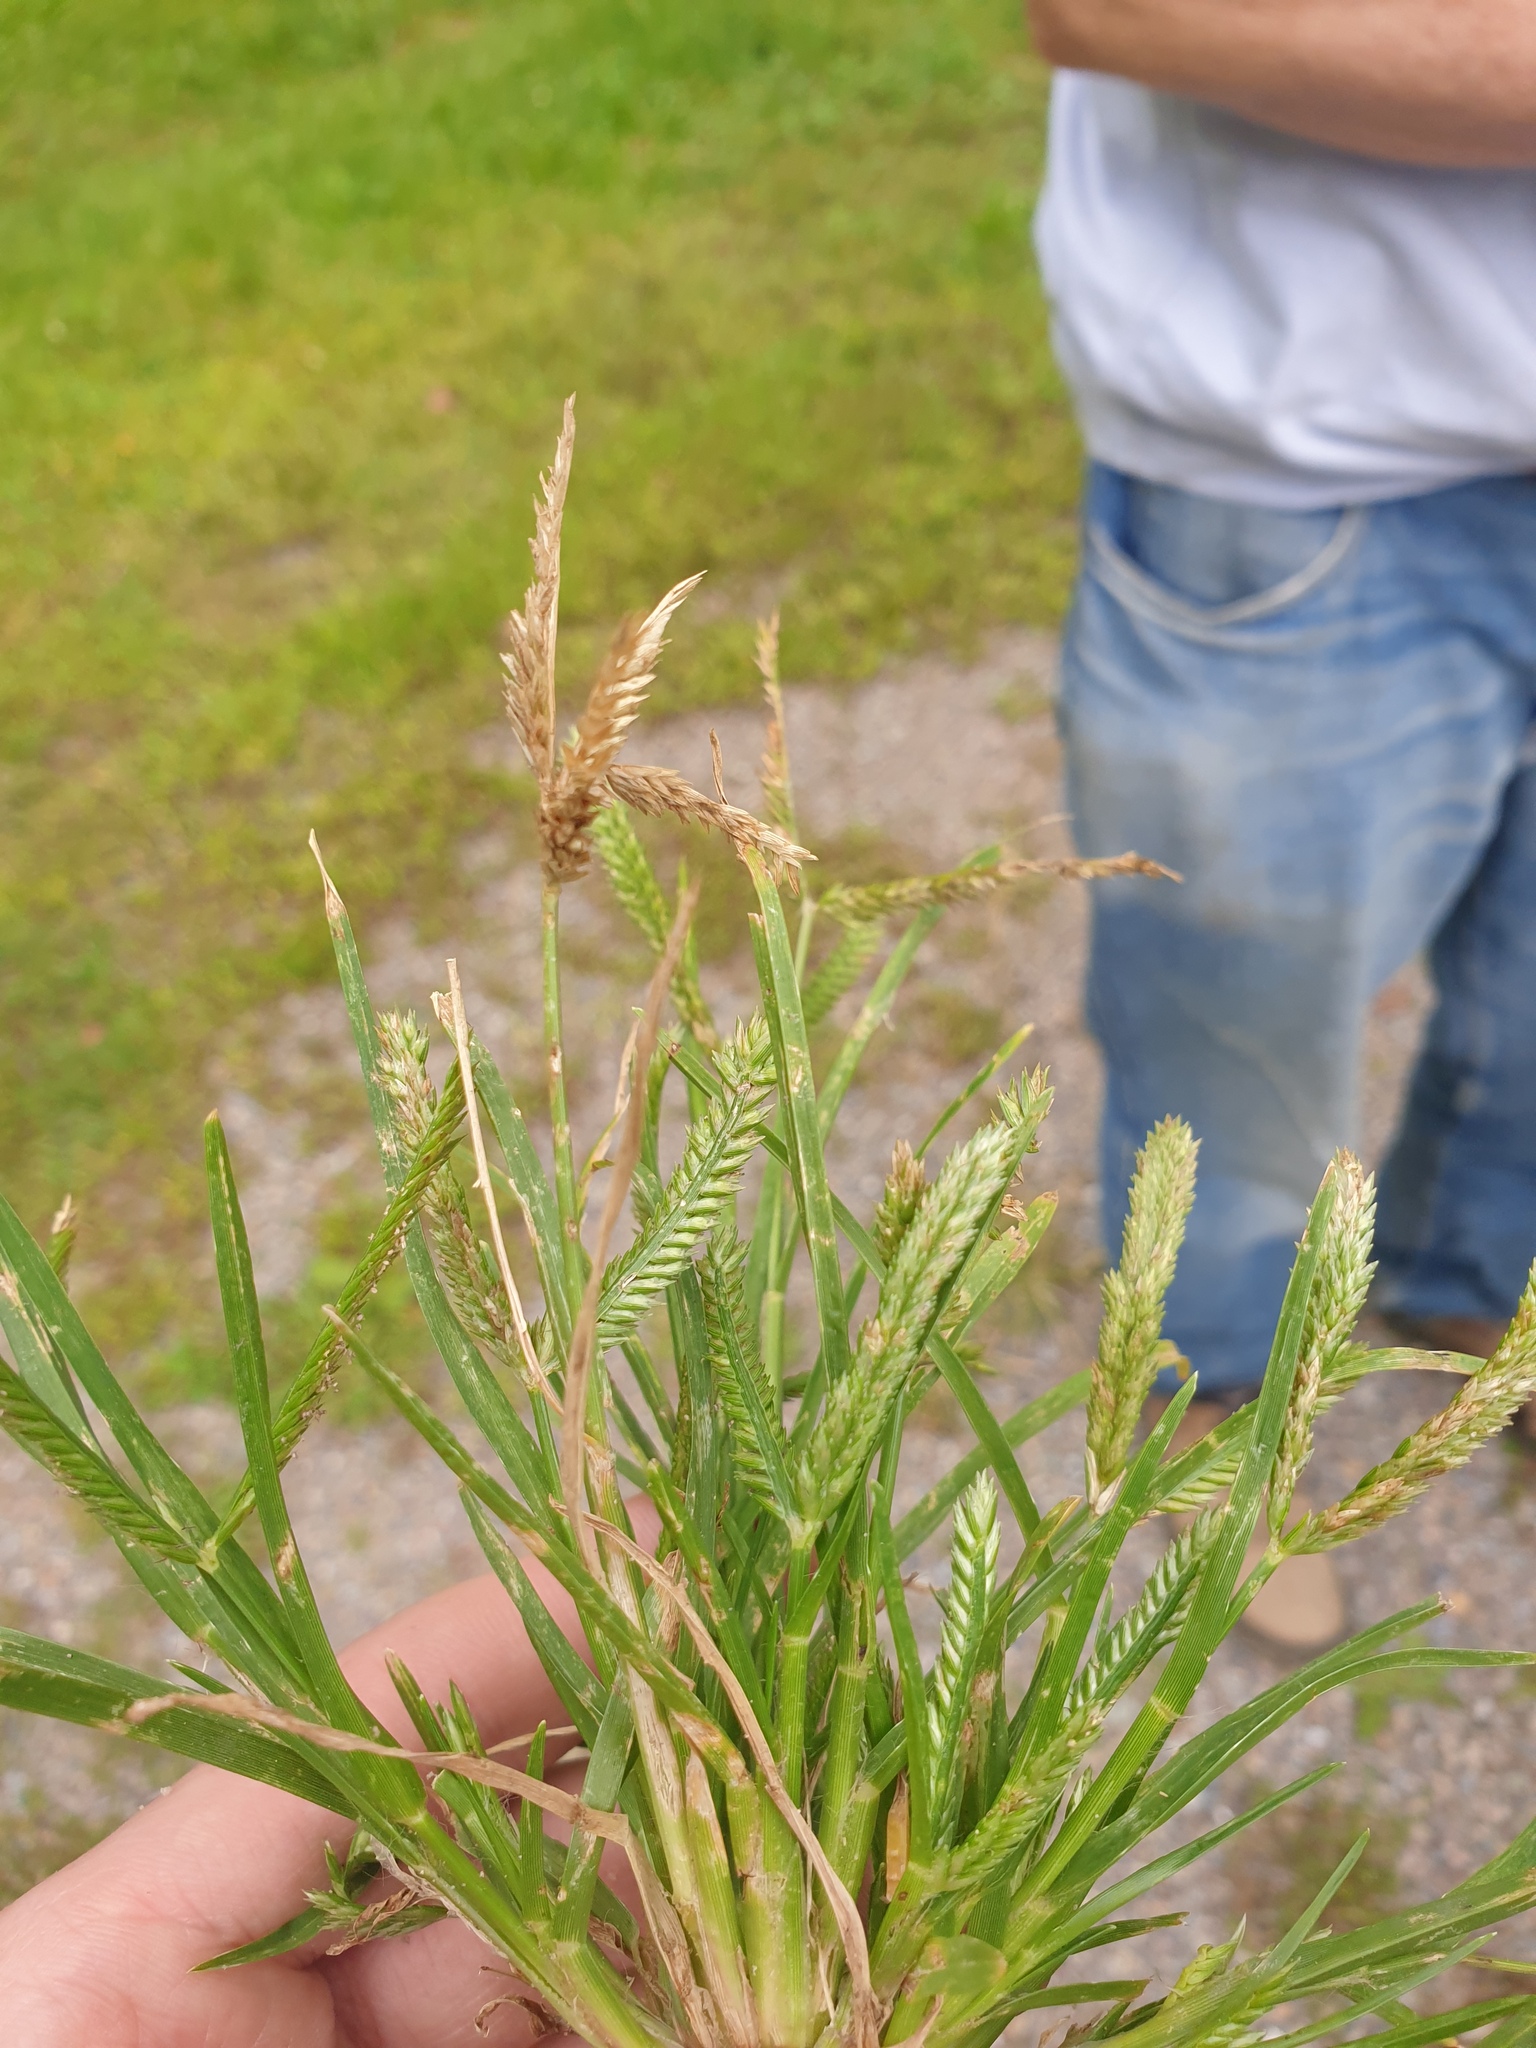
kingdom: Plantae
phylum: Tracheophyta
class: Liliopsida
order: Poales
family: Poaceae
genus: Eleusine
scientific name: Eleusine indica
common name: Yard-grass
